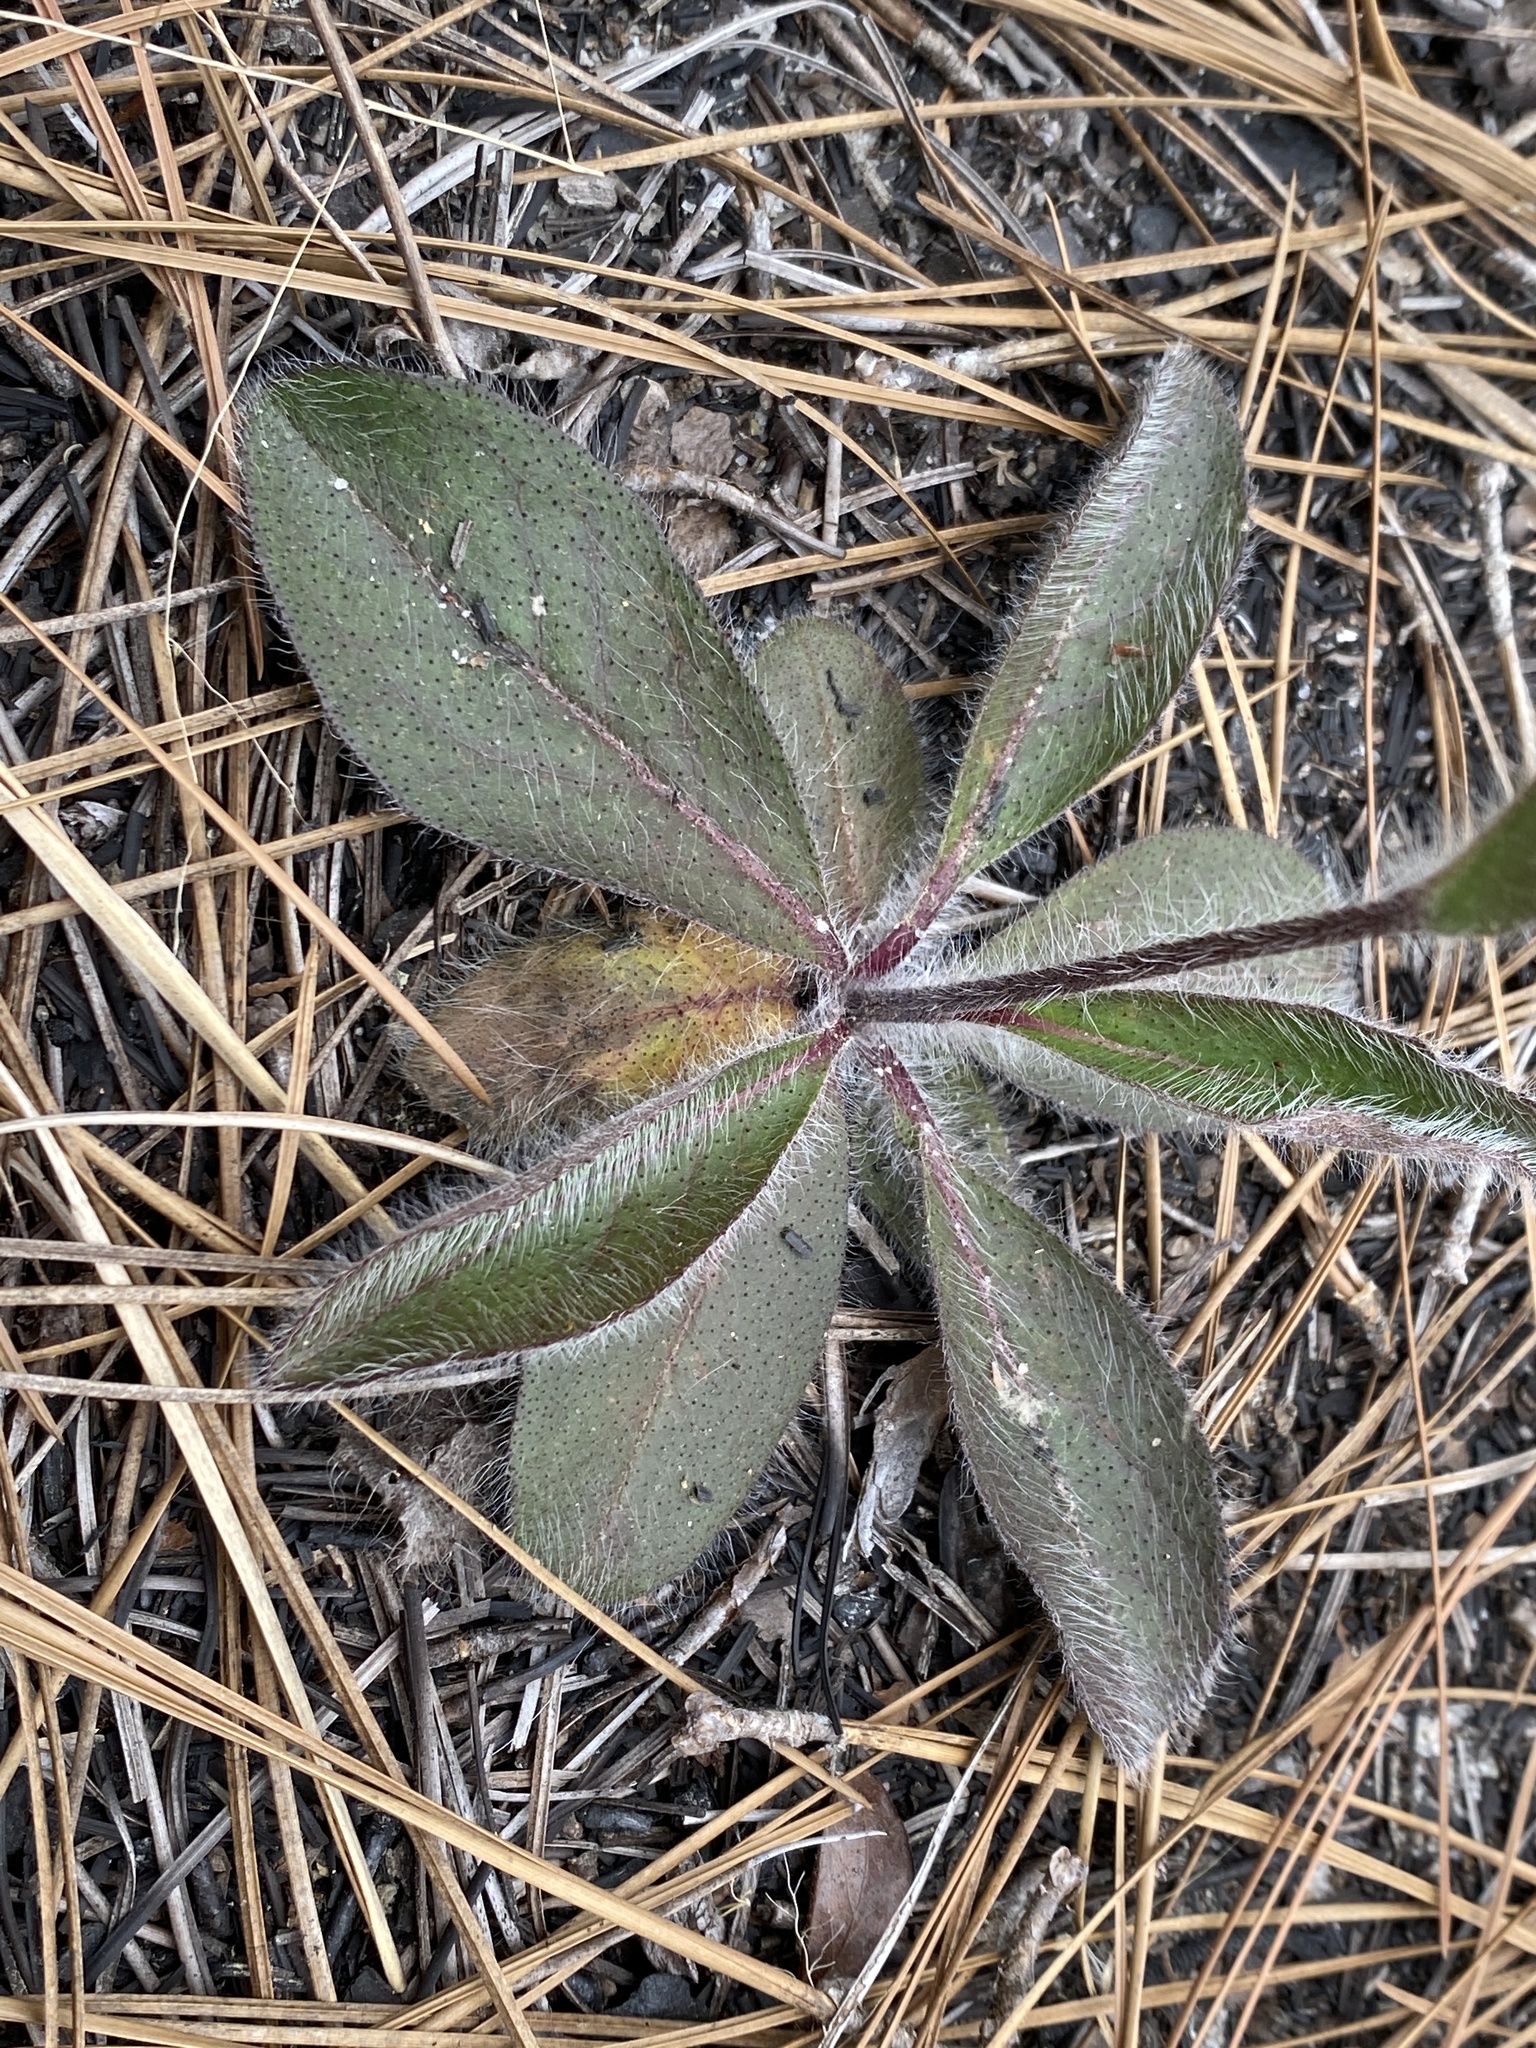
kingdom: Plantae
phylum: Tracheophyta
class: Magnoliopsida
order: Asterales
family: Asteraceae
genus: Hieracium
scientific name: Hieracium gronovii
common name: Beaked hawkweed
